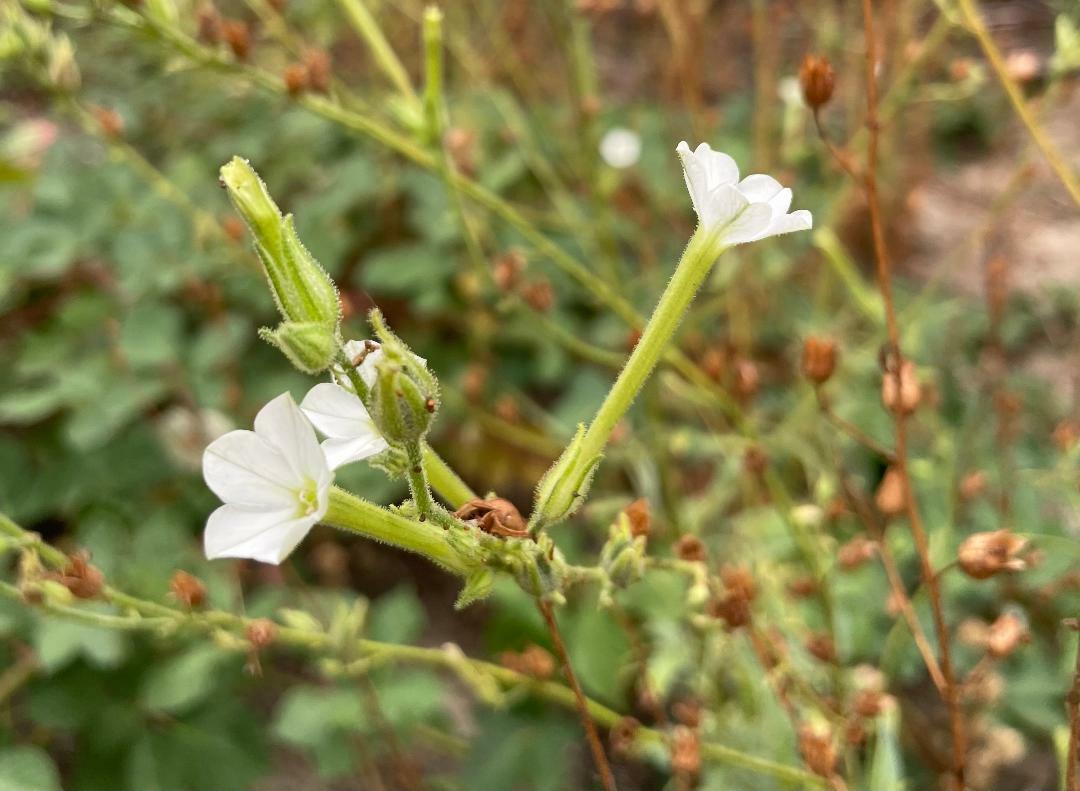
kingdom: Plantae
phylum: Tracheophyta
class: Magnoliopsida
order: Solanales
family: Solanaceae
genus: Nicotiana
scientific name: Nicotiana attenuata
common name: Coyote tobacco
